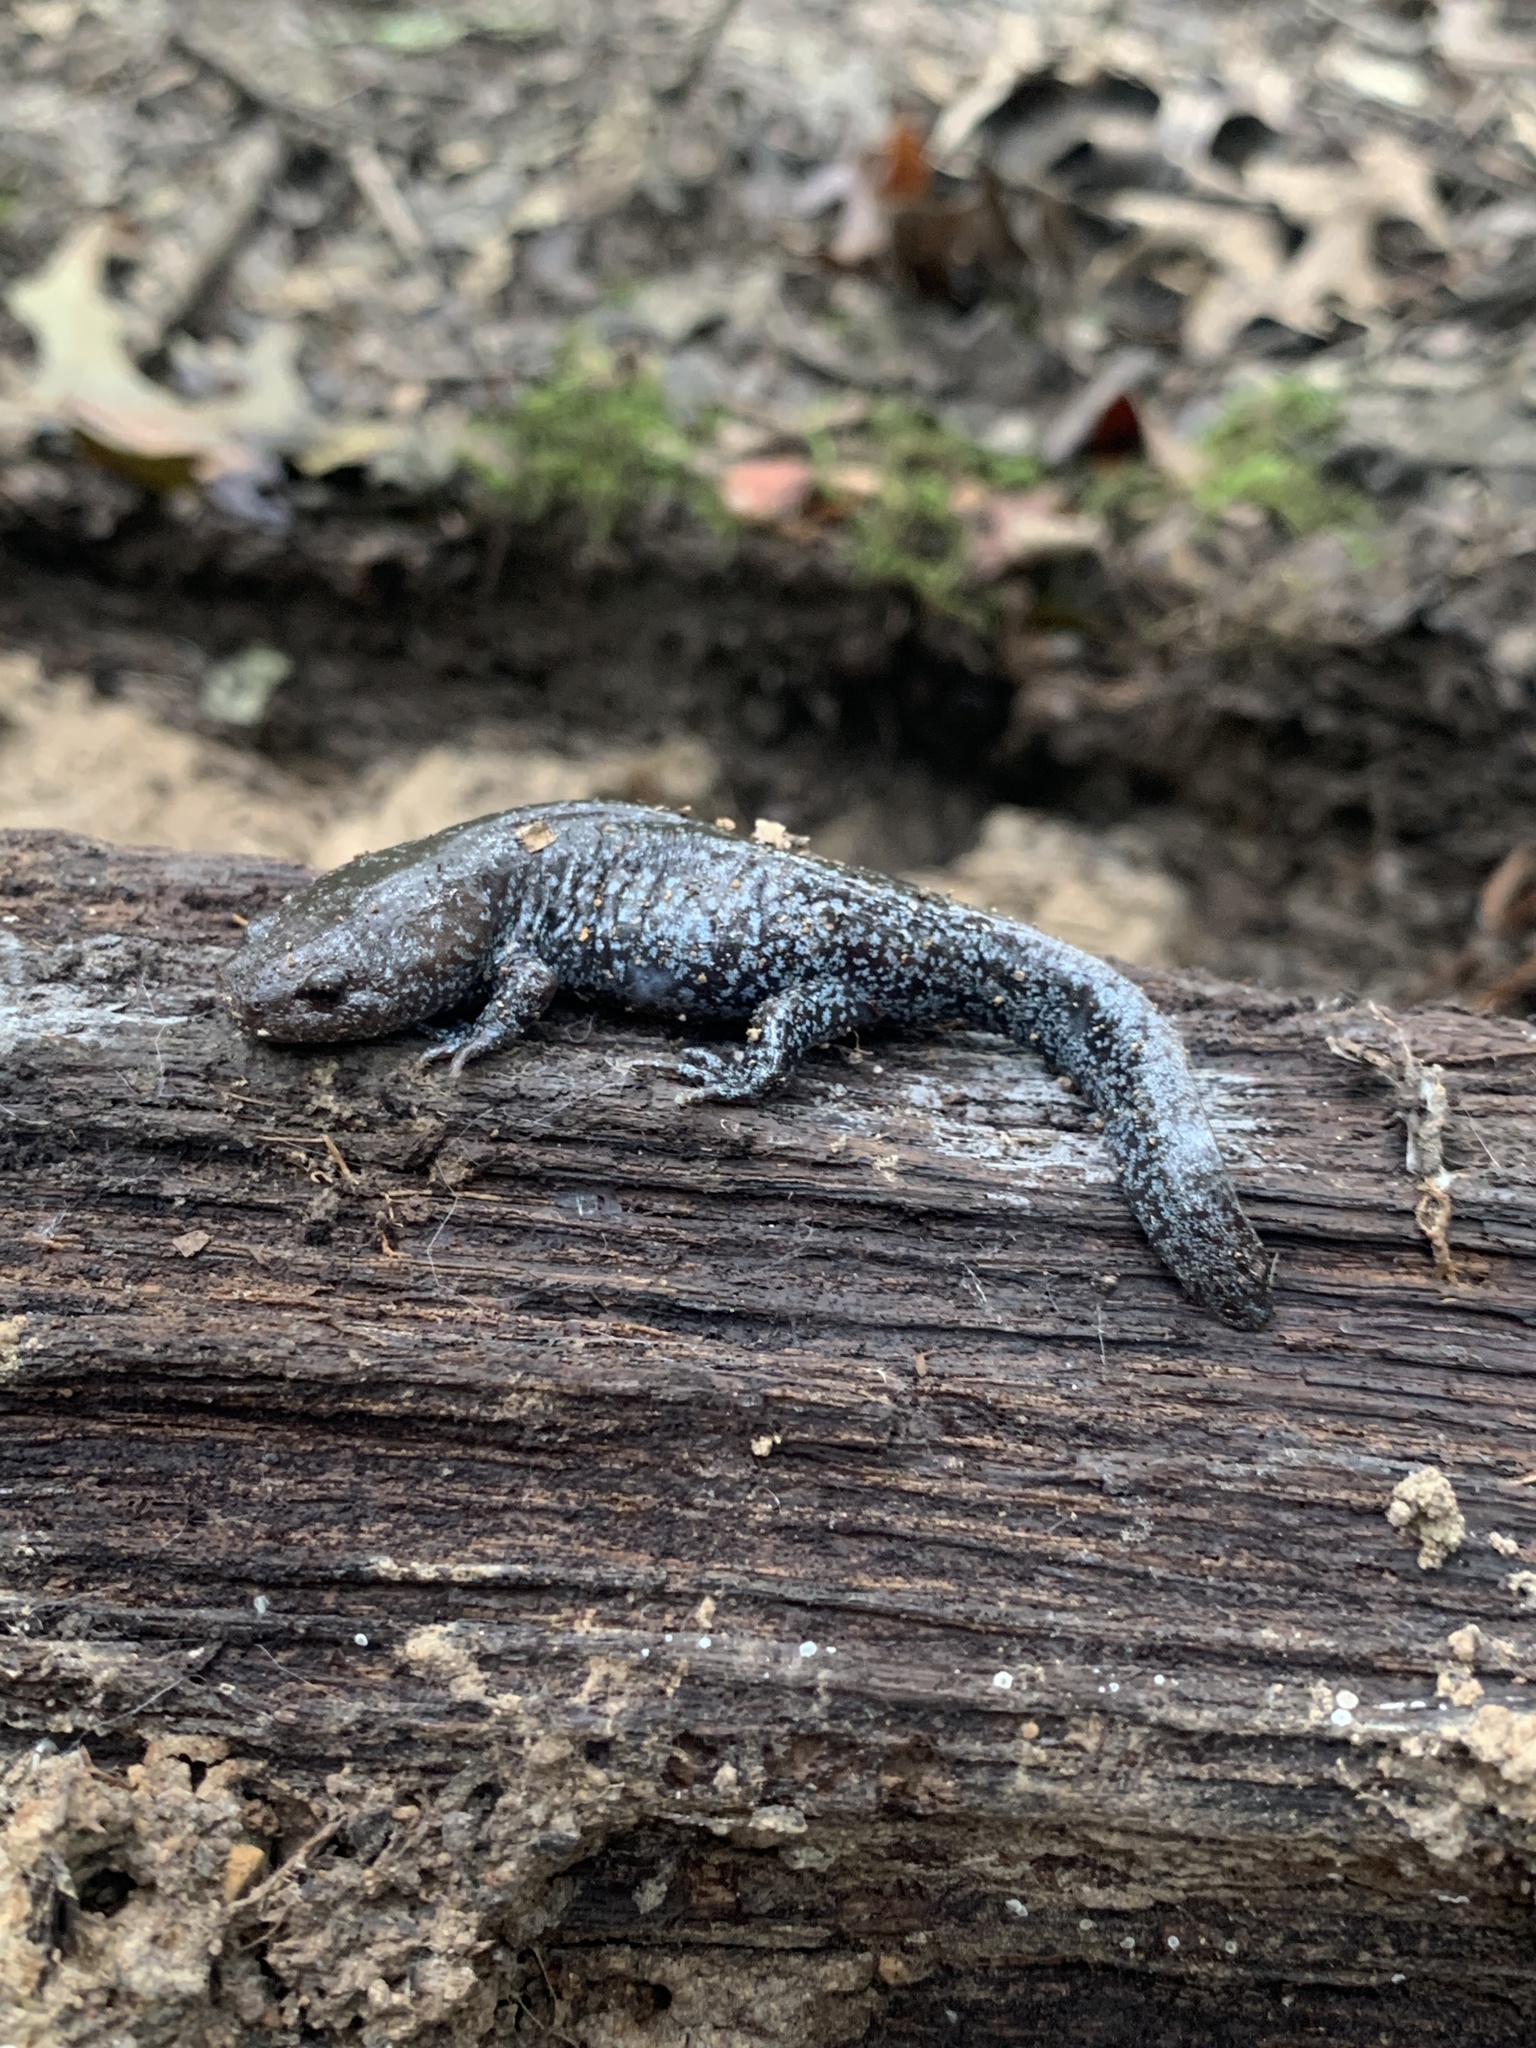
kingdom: Animalia
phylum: Chordata
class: Amphibia
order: Caudata
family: Ambystomatidae
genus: Ambystoma
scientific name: Ambystoma talpoideum
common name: Mole salamander
